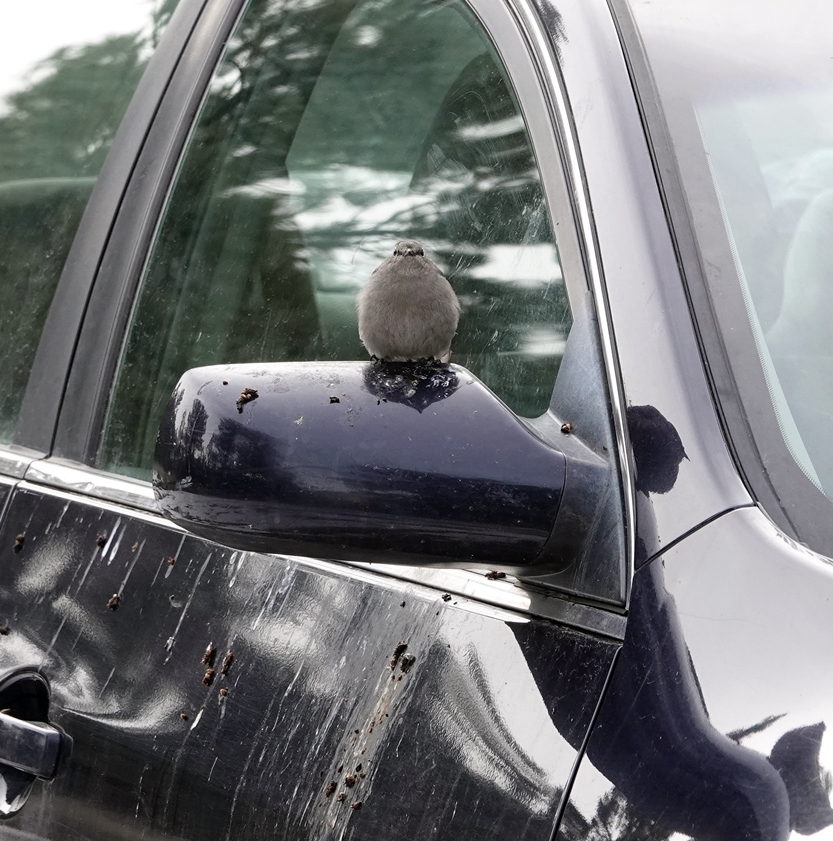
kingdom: Animalia
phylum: Chordata
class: Aves
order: Passeriformes
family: Turdidae
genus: Myadestes
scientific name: Myadestes townsendi
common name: Townsend's solitaire
